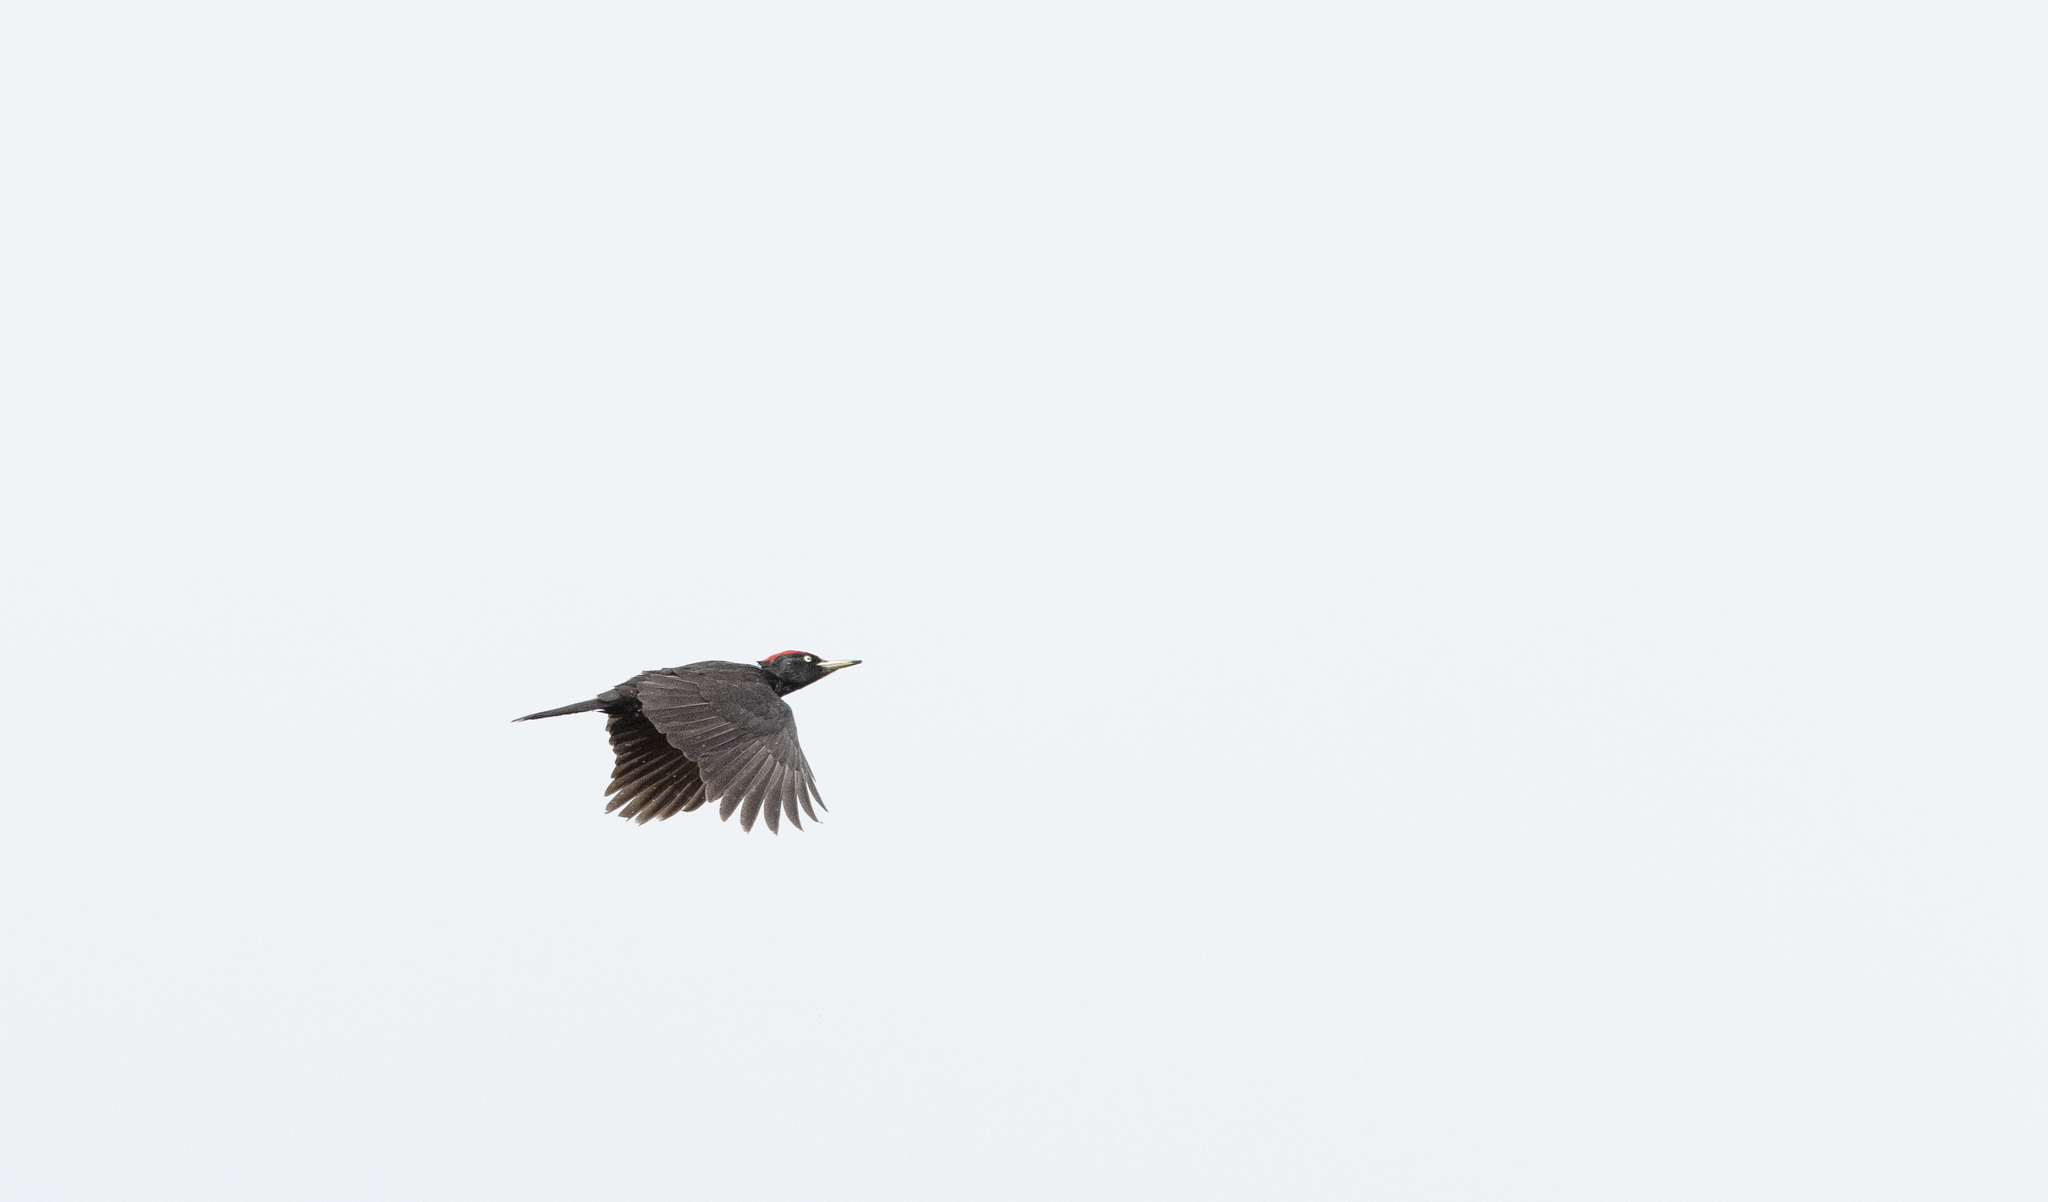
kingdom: Animalia
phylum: Chordata
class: Aves
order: Piciformes
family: Picidae
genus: Dryocopus
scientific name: Dryocopus martius
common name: Black woodpecker
